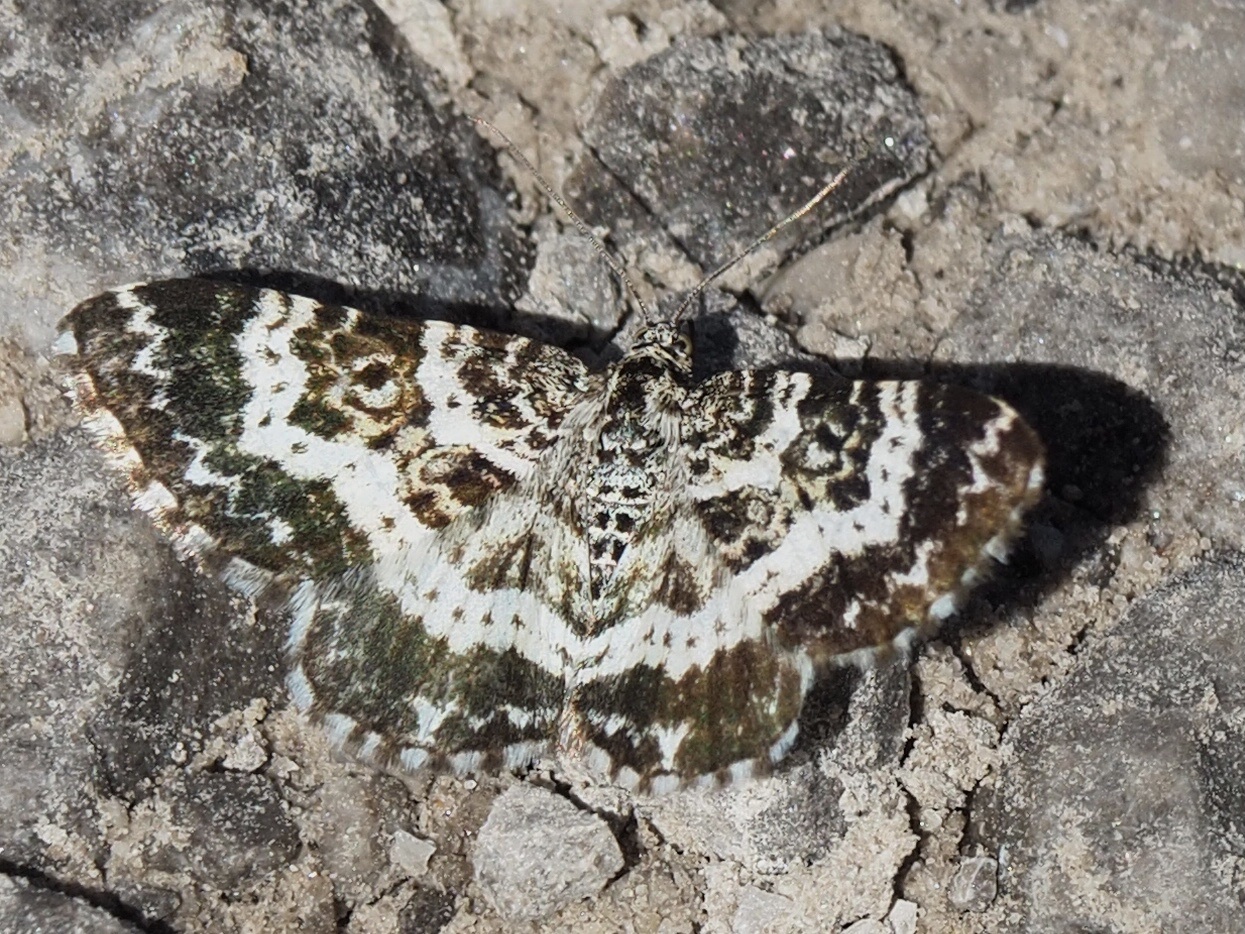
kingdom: Animalia
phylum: Arthropoda
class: Insecta
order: Lepidoptera
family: Geometridae
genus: Epirrhoe
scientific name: Epirrhoe tristata
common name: Small argent & sable
